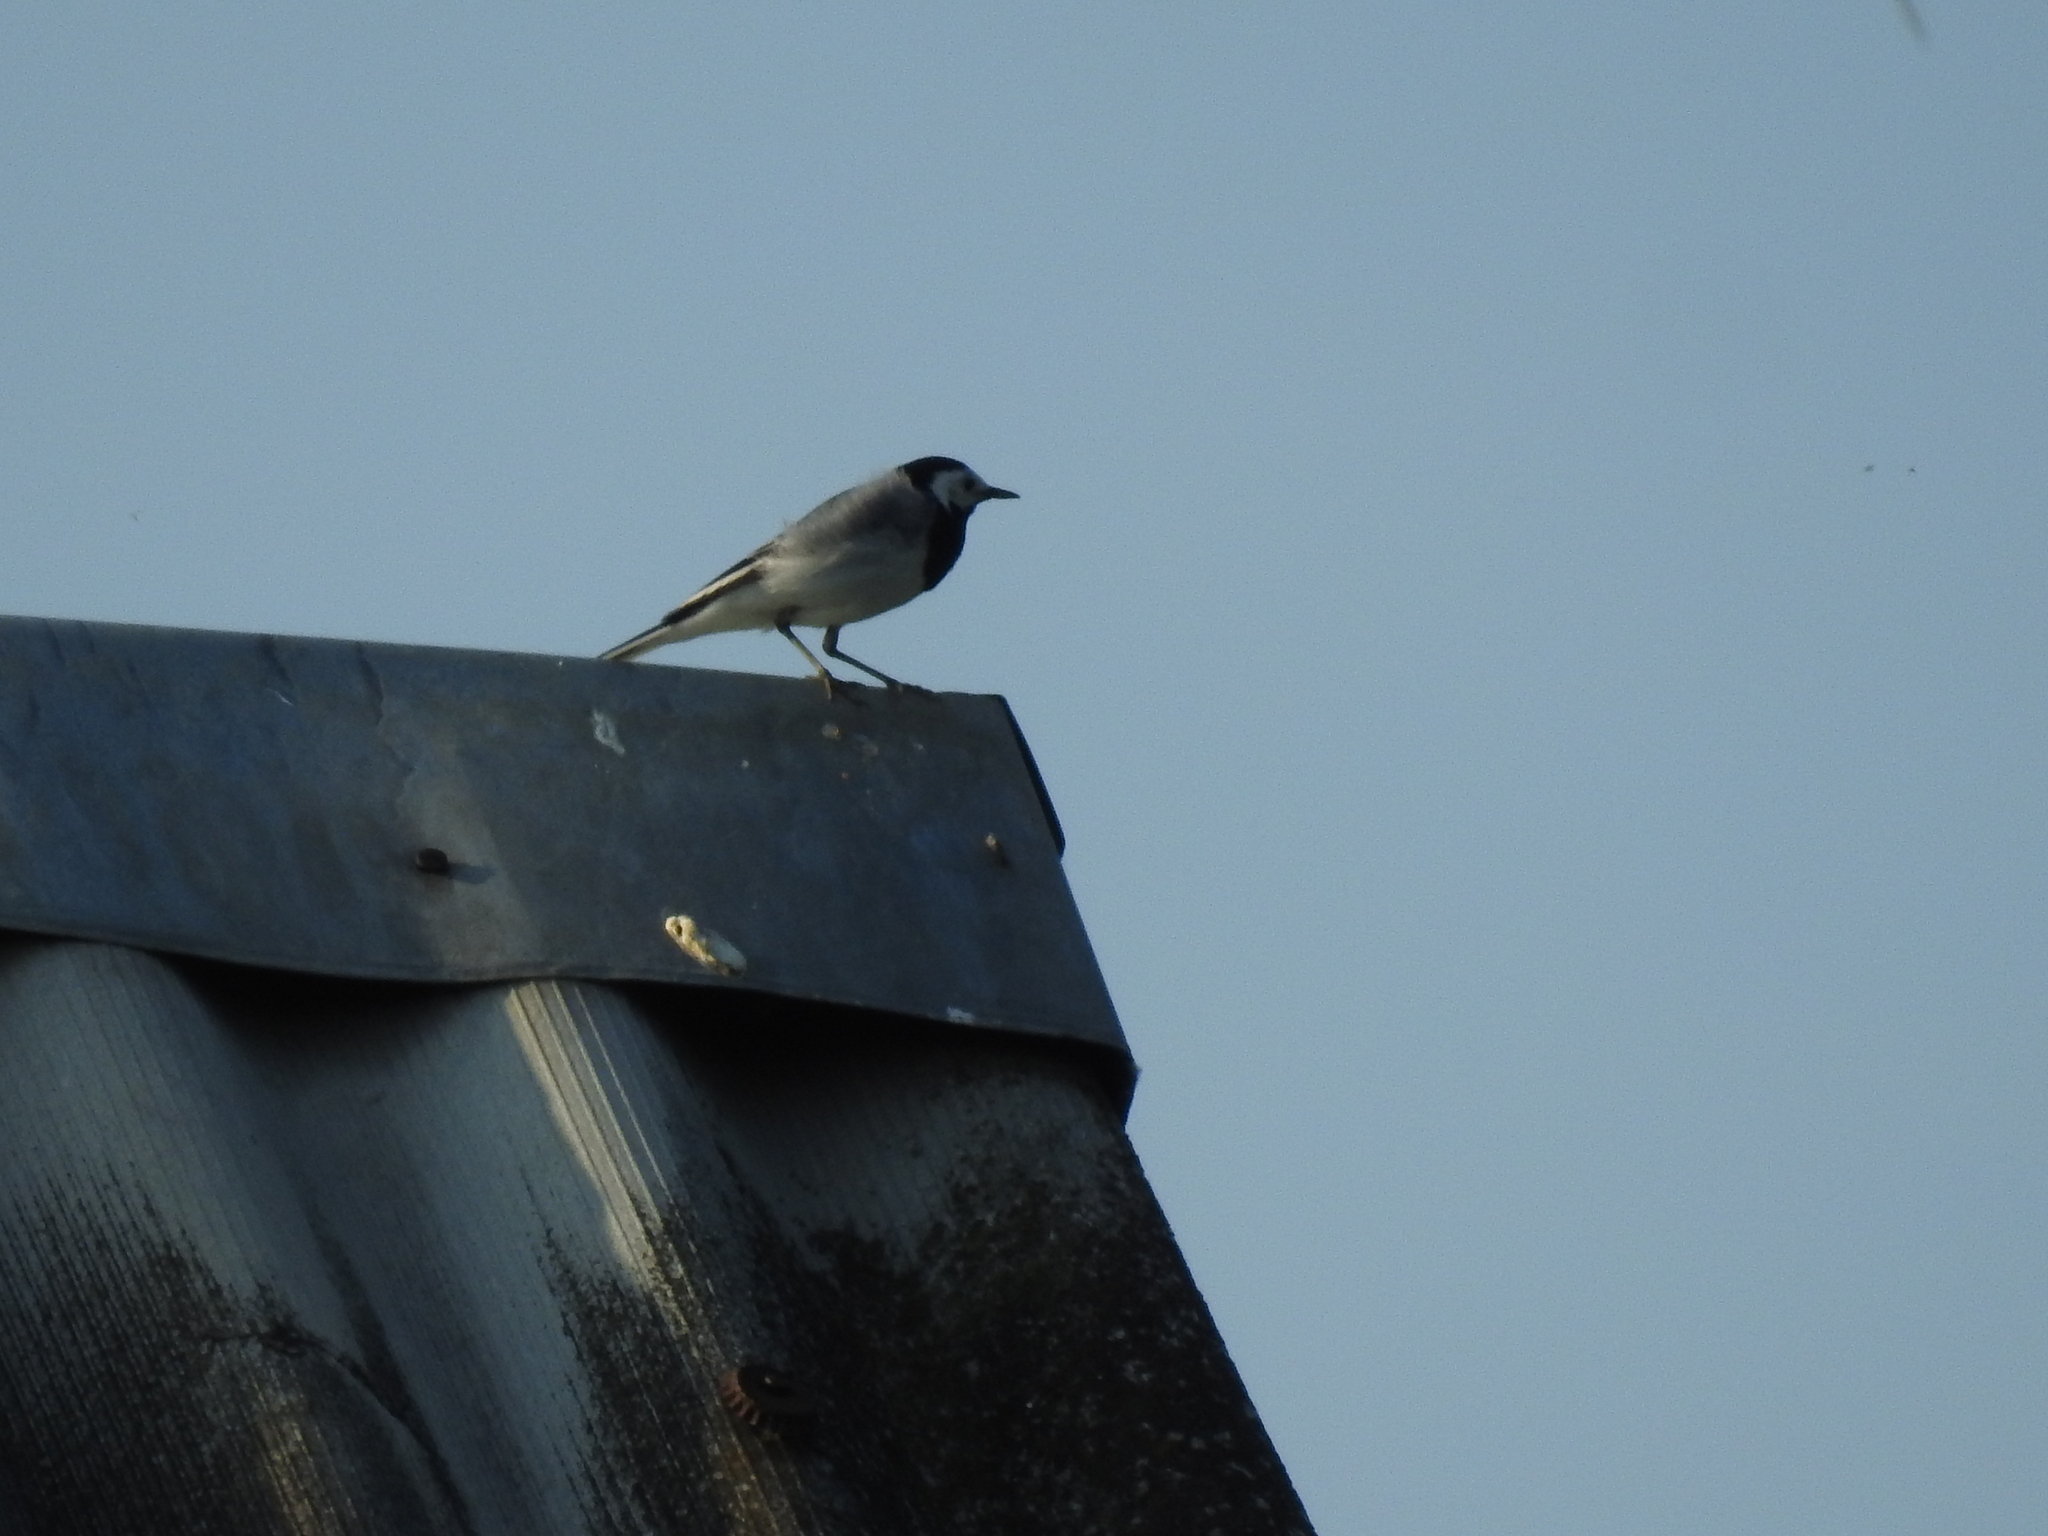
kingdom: Animalia
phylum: Chordata
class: Aves
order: Passeriformes
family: Motacillidae
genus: Motacilla
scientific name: Motacilla alba
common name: White wagtail
